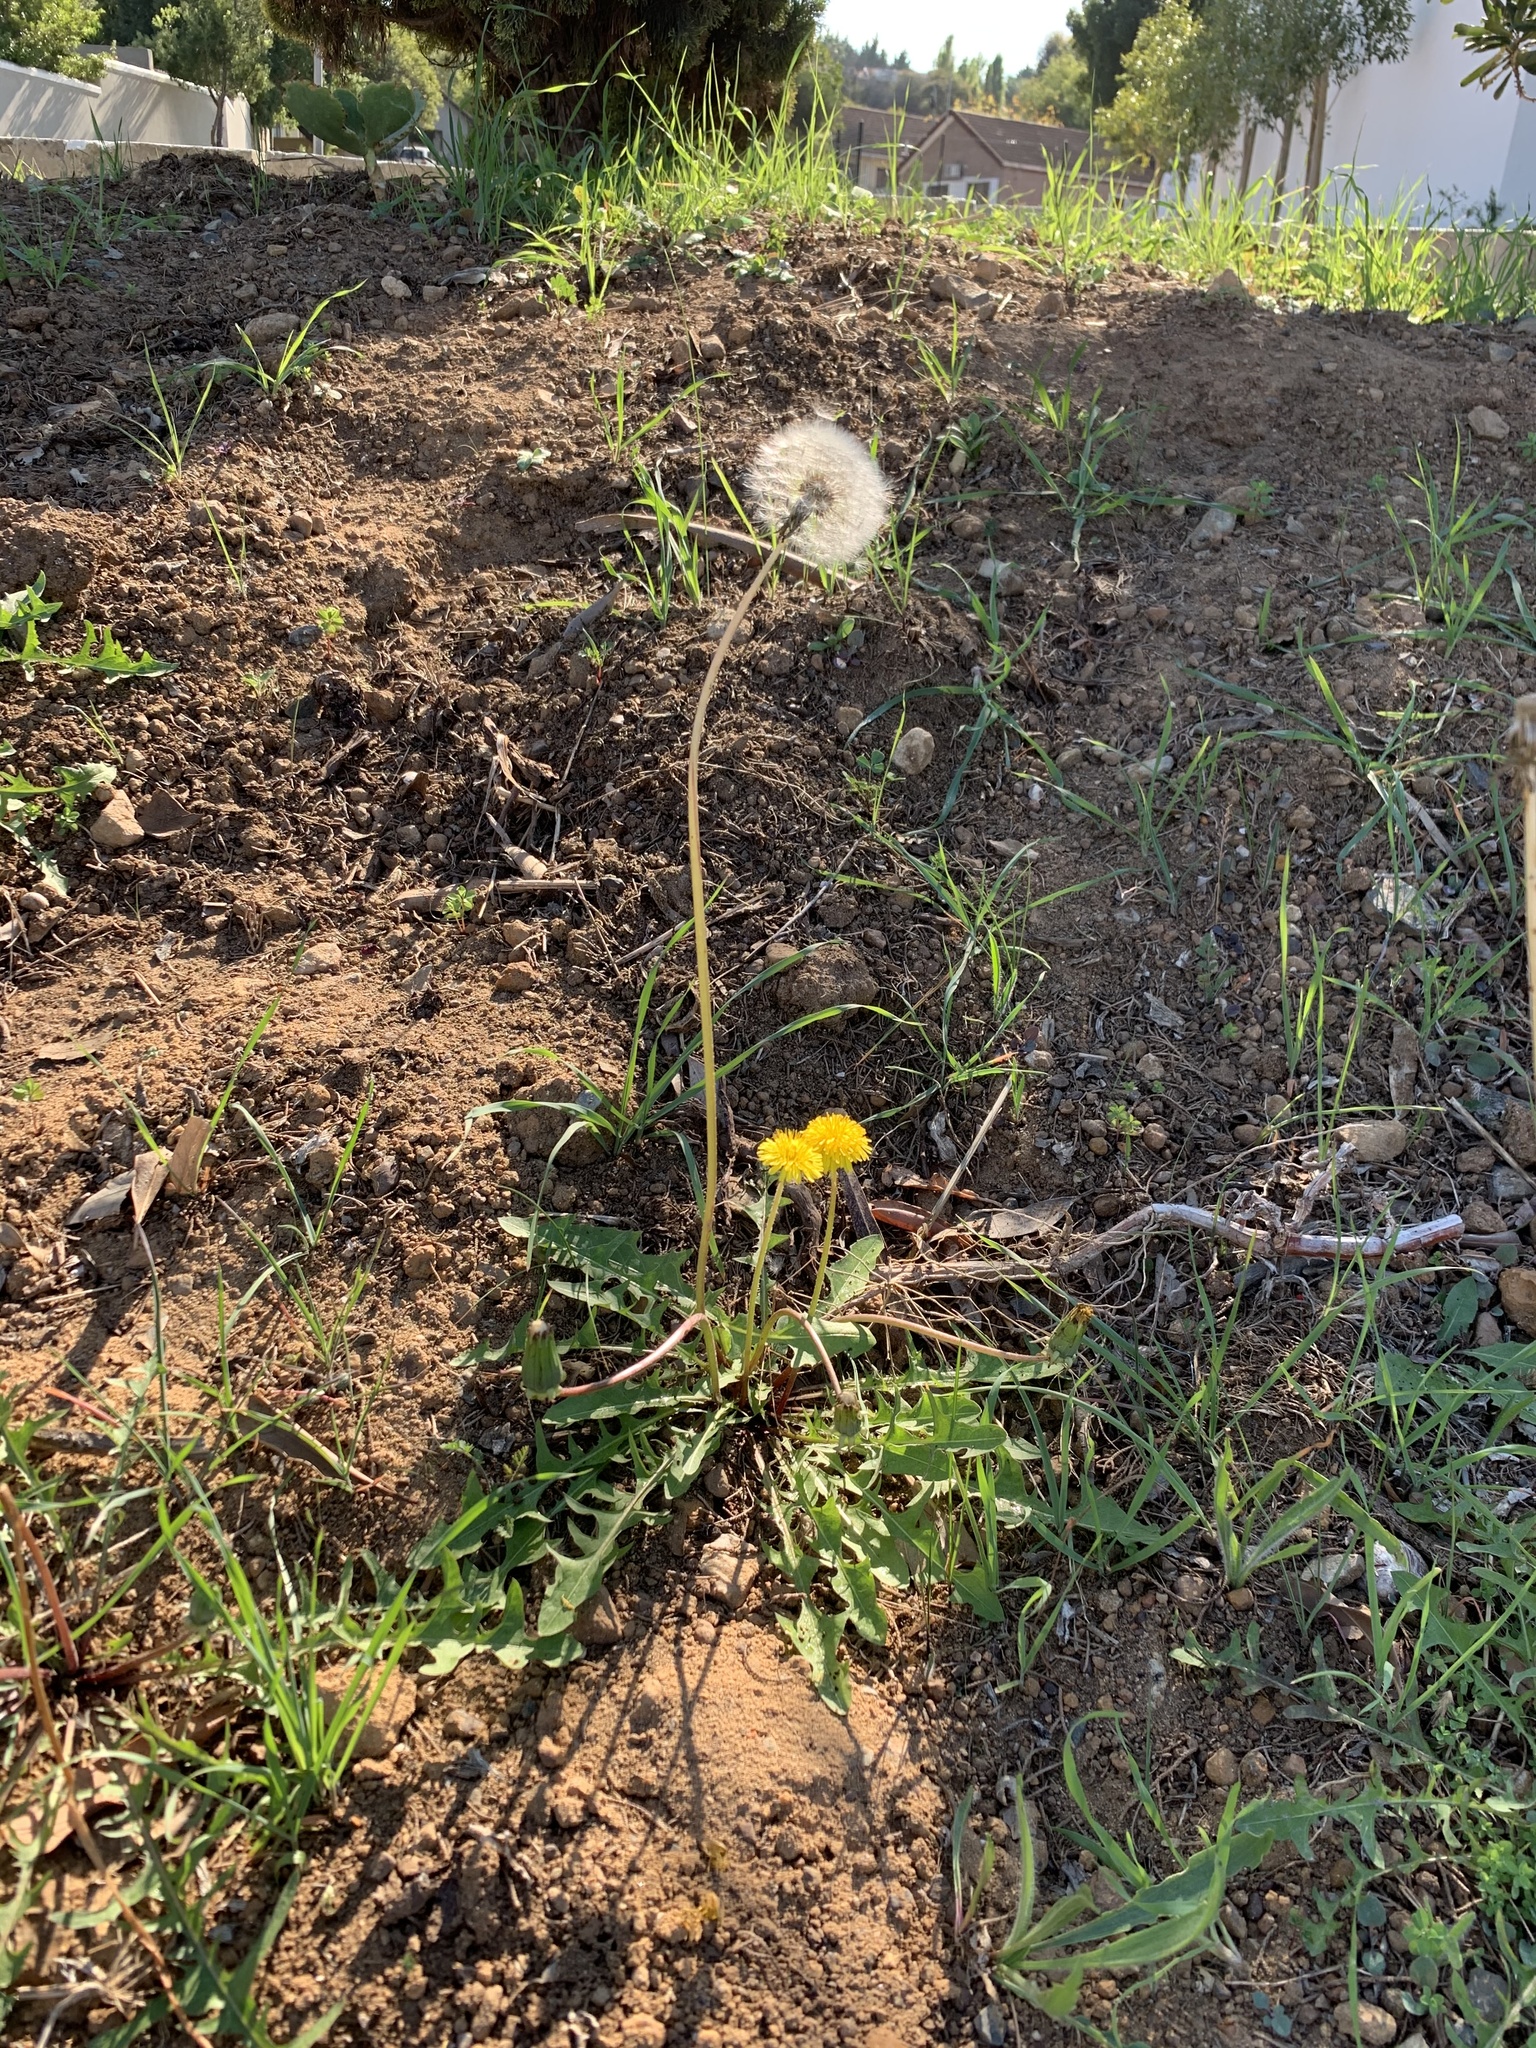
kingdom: Plantae
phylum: Tracheophyta
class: Magnoliopsida
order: Asterales
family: Asteraceae
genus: Taraxacum
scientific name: Taraxacum officinale
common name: Common dandelion
